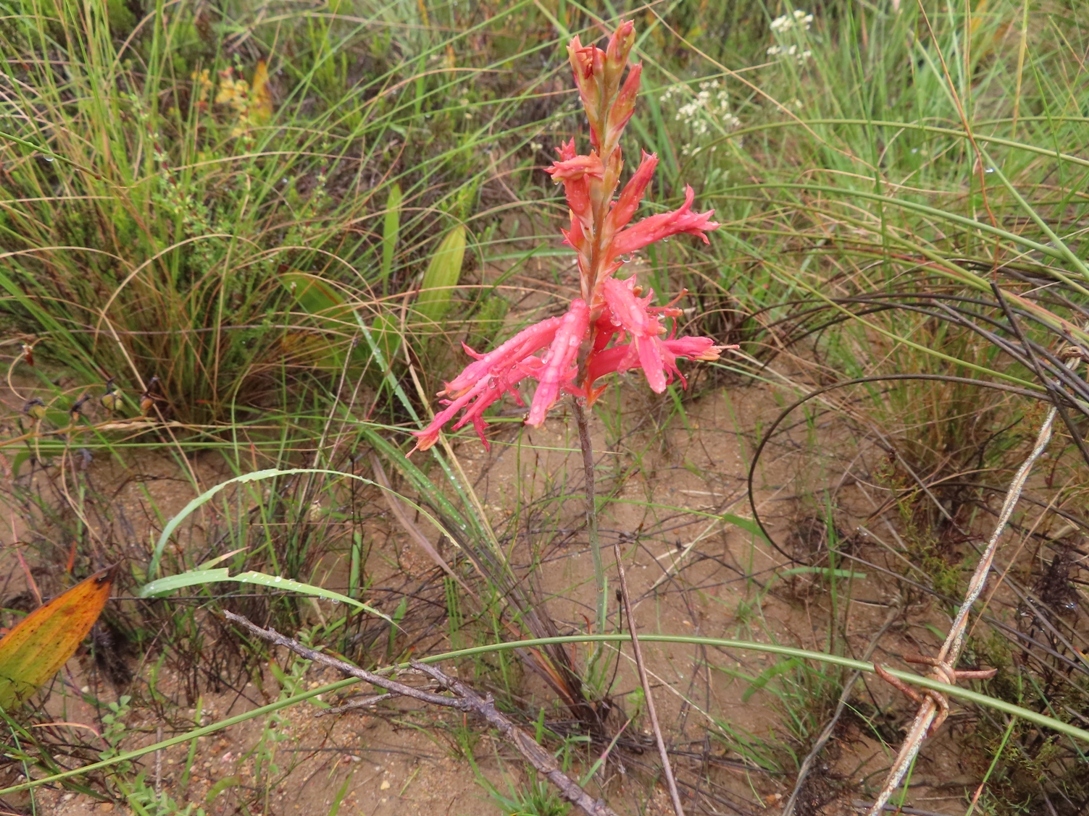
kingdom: Plantae
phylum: Tracheophyta
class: Liliopsida
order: Asparagales
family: Iridaceae
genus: Tritoniopsis
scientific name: Tritoniopsis antholyza
